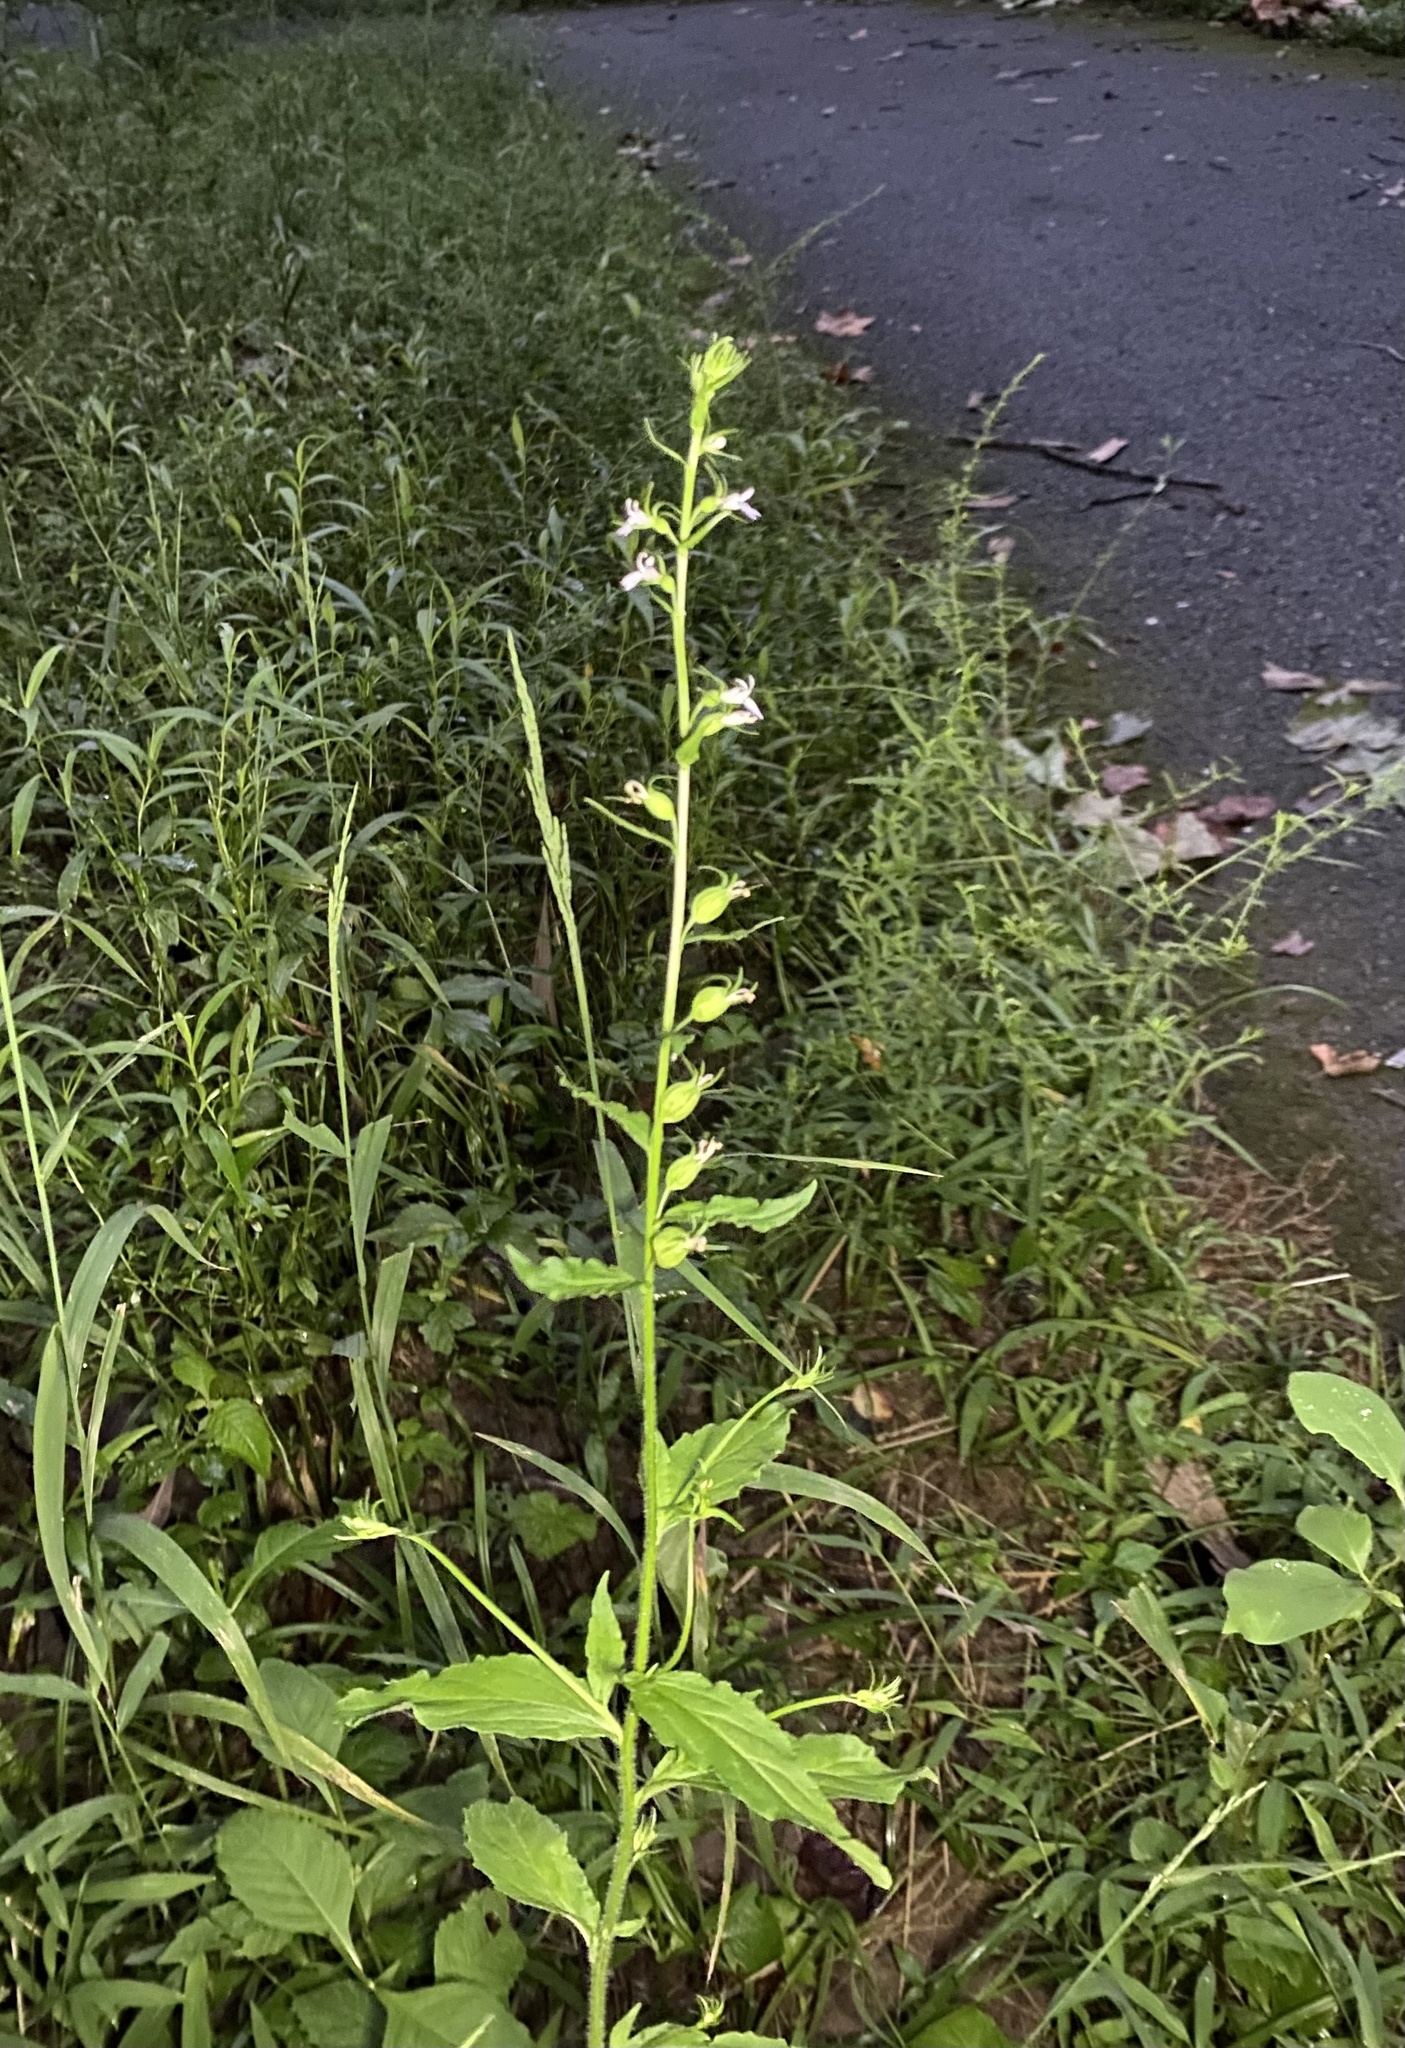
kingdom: Plantae
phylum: Tracheophyta
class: Magnoliopsida
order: Asterales
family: Campanulaceae
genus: Lobelia
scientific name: Lobelia inflata
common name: Indian tobacco
